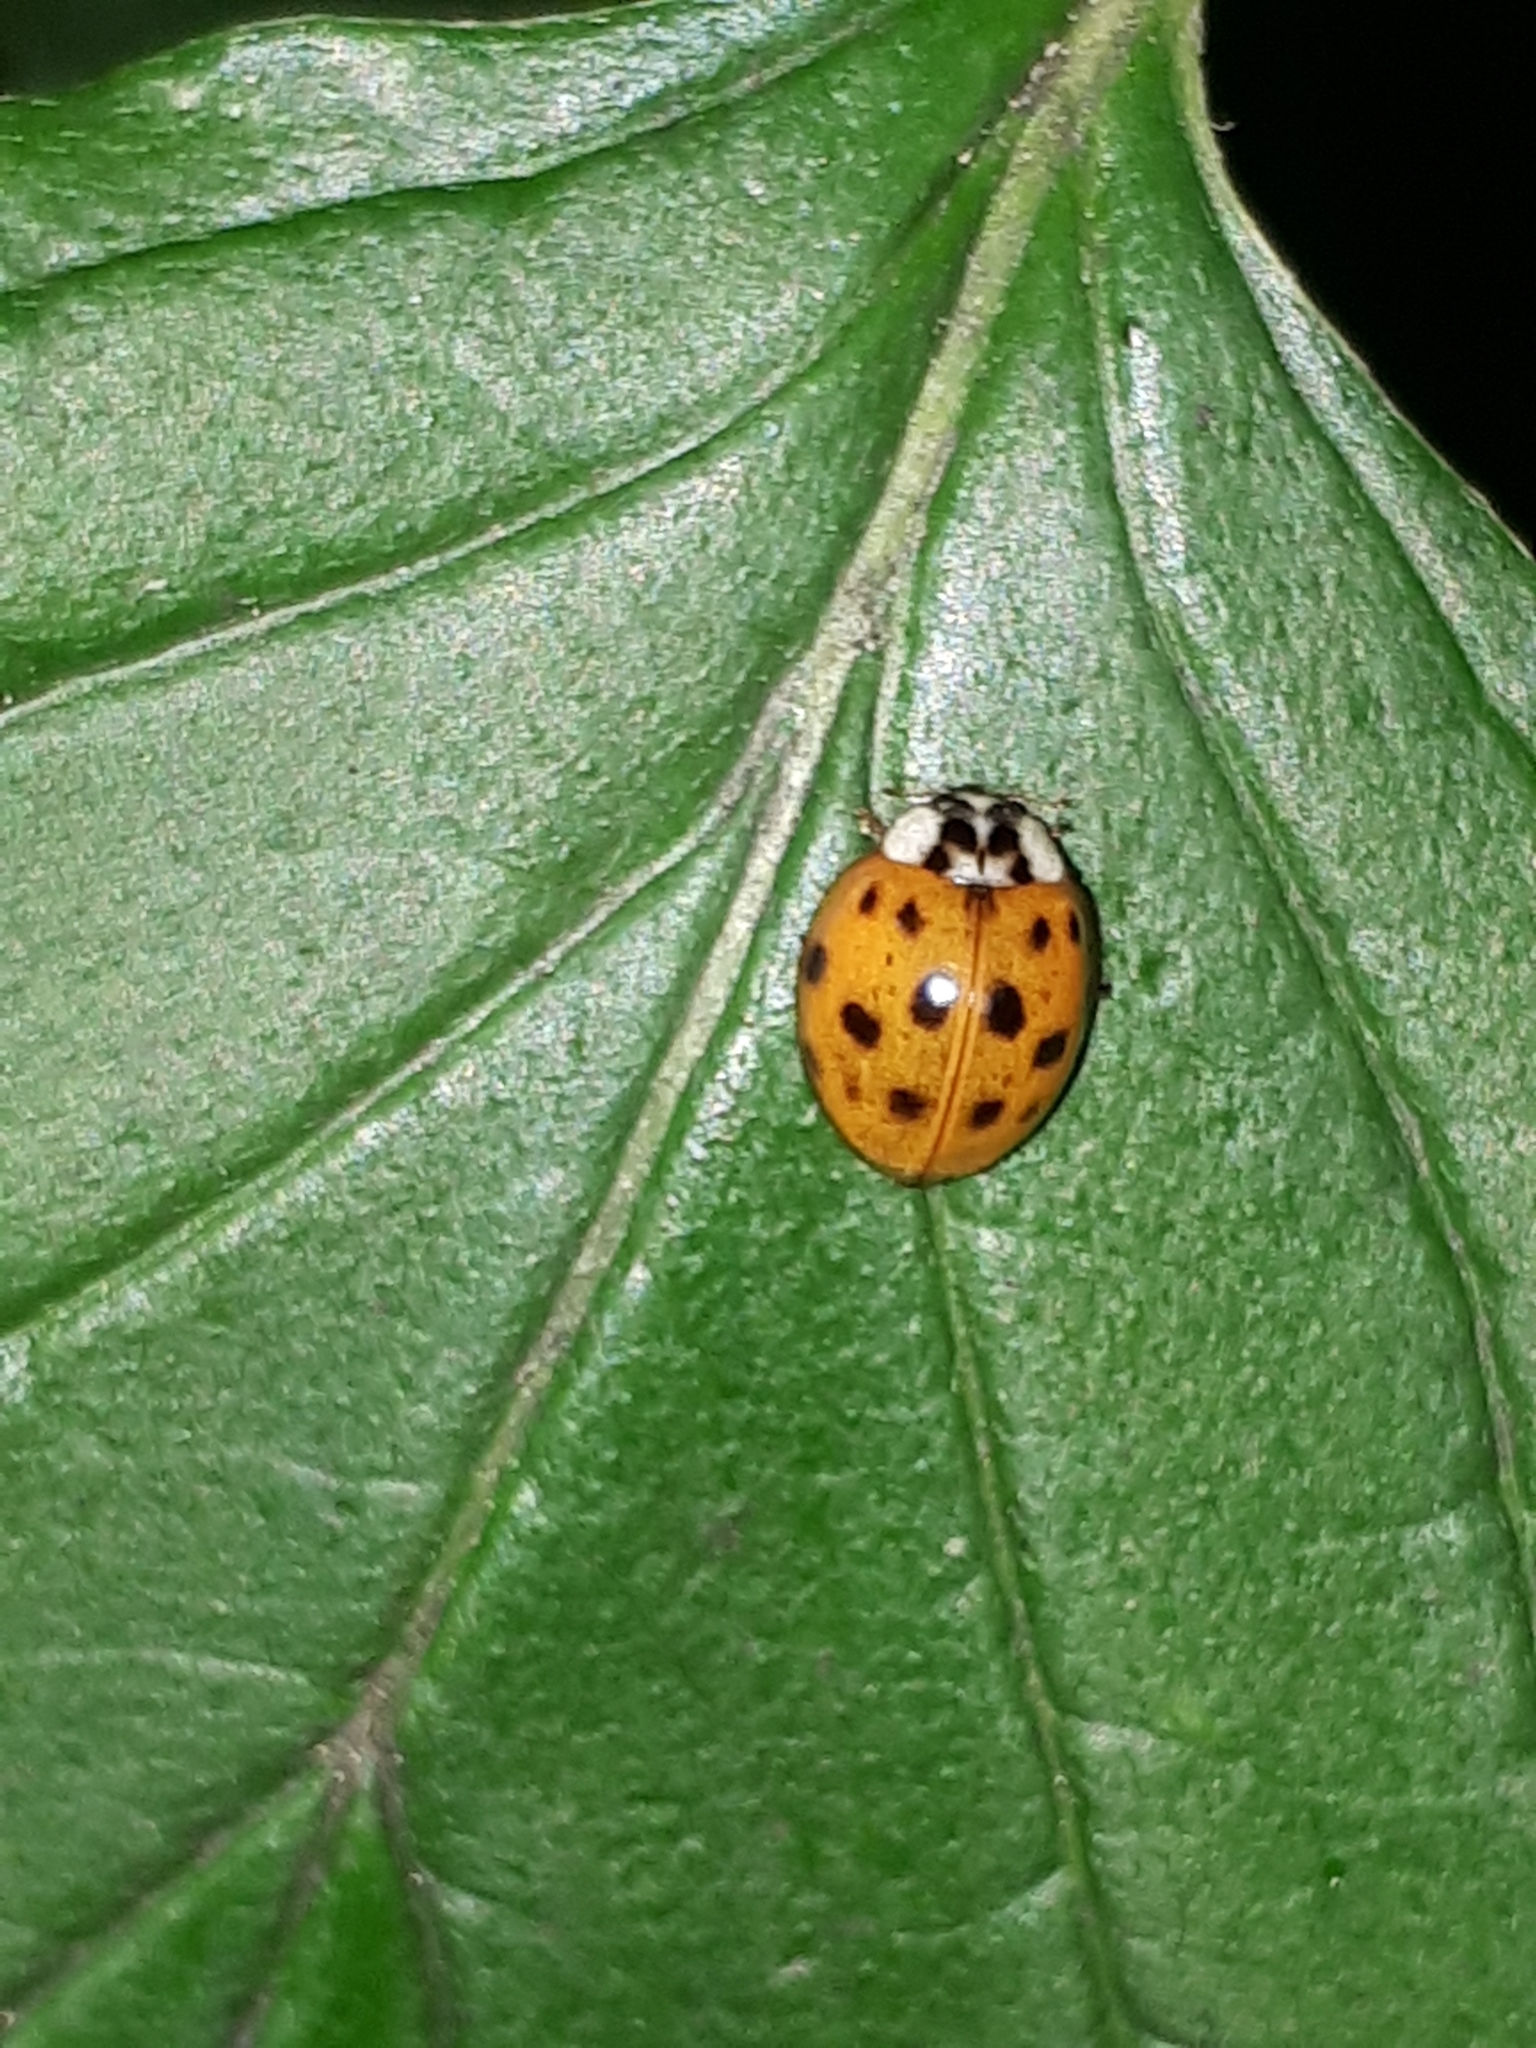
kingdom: Animalia
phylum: Arthropoda
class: Insecta
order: Coleoptera
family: Coccinellidae
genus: Harmonia
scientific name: Harmonia axyridis
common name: Harlequin ladybird
